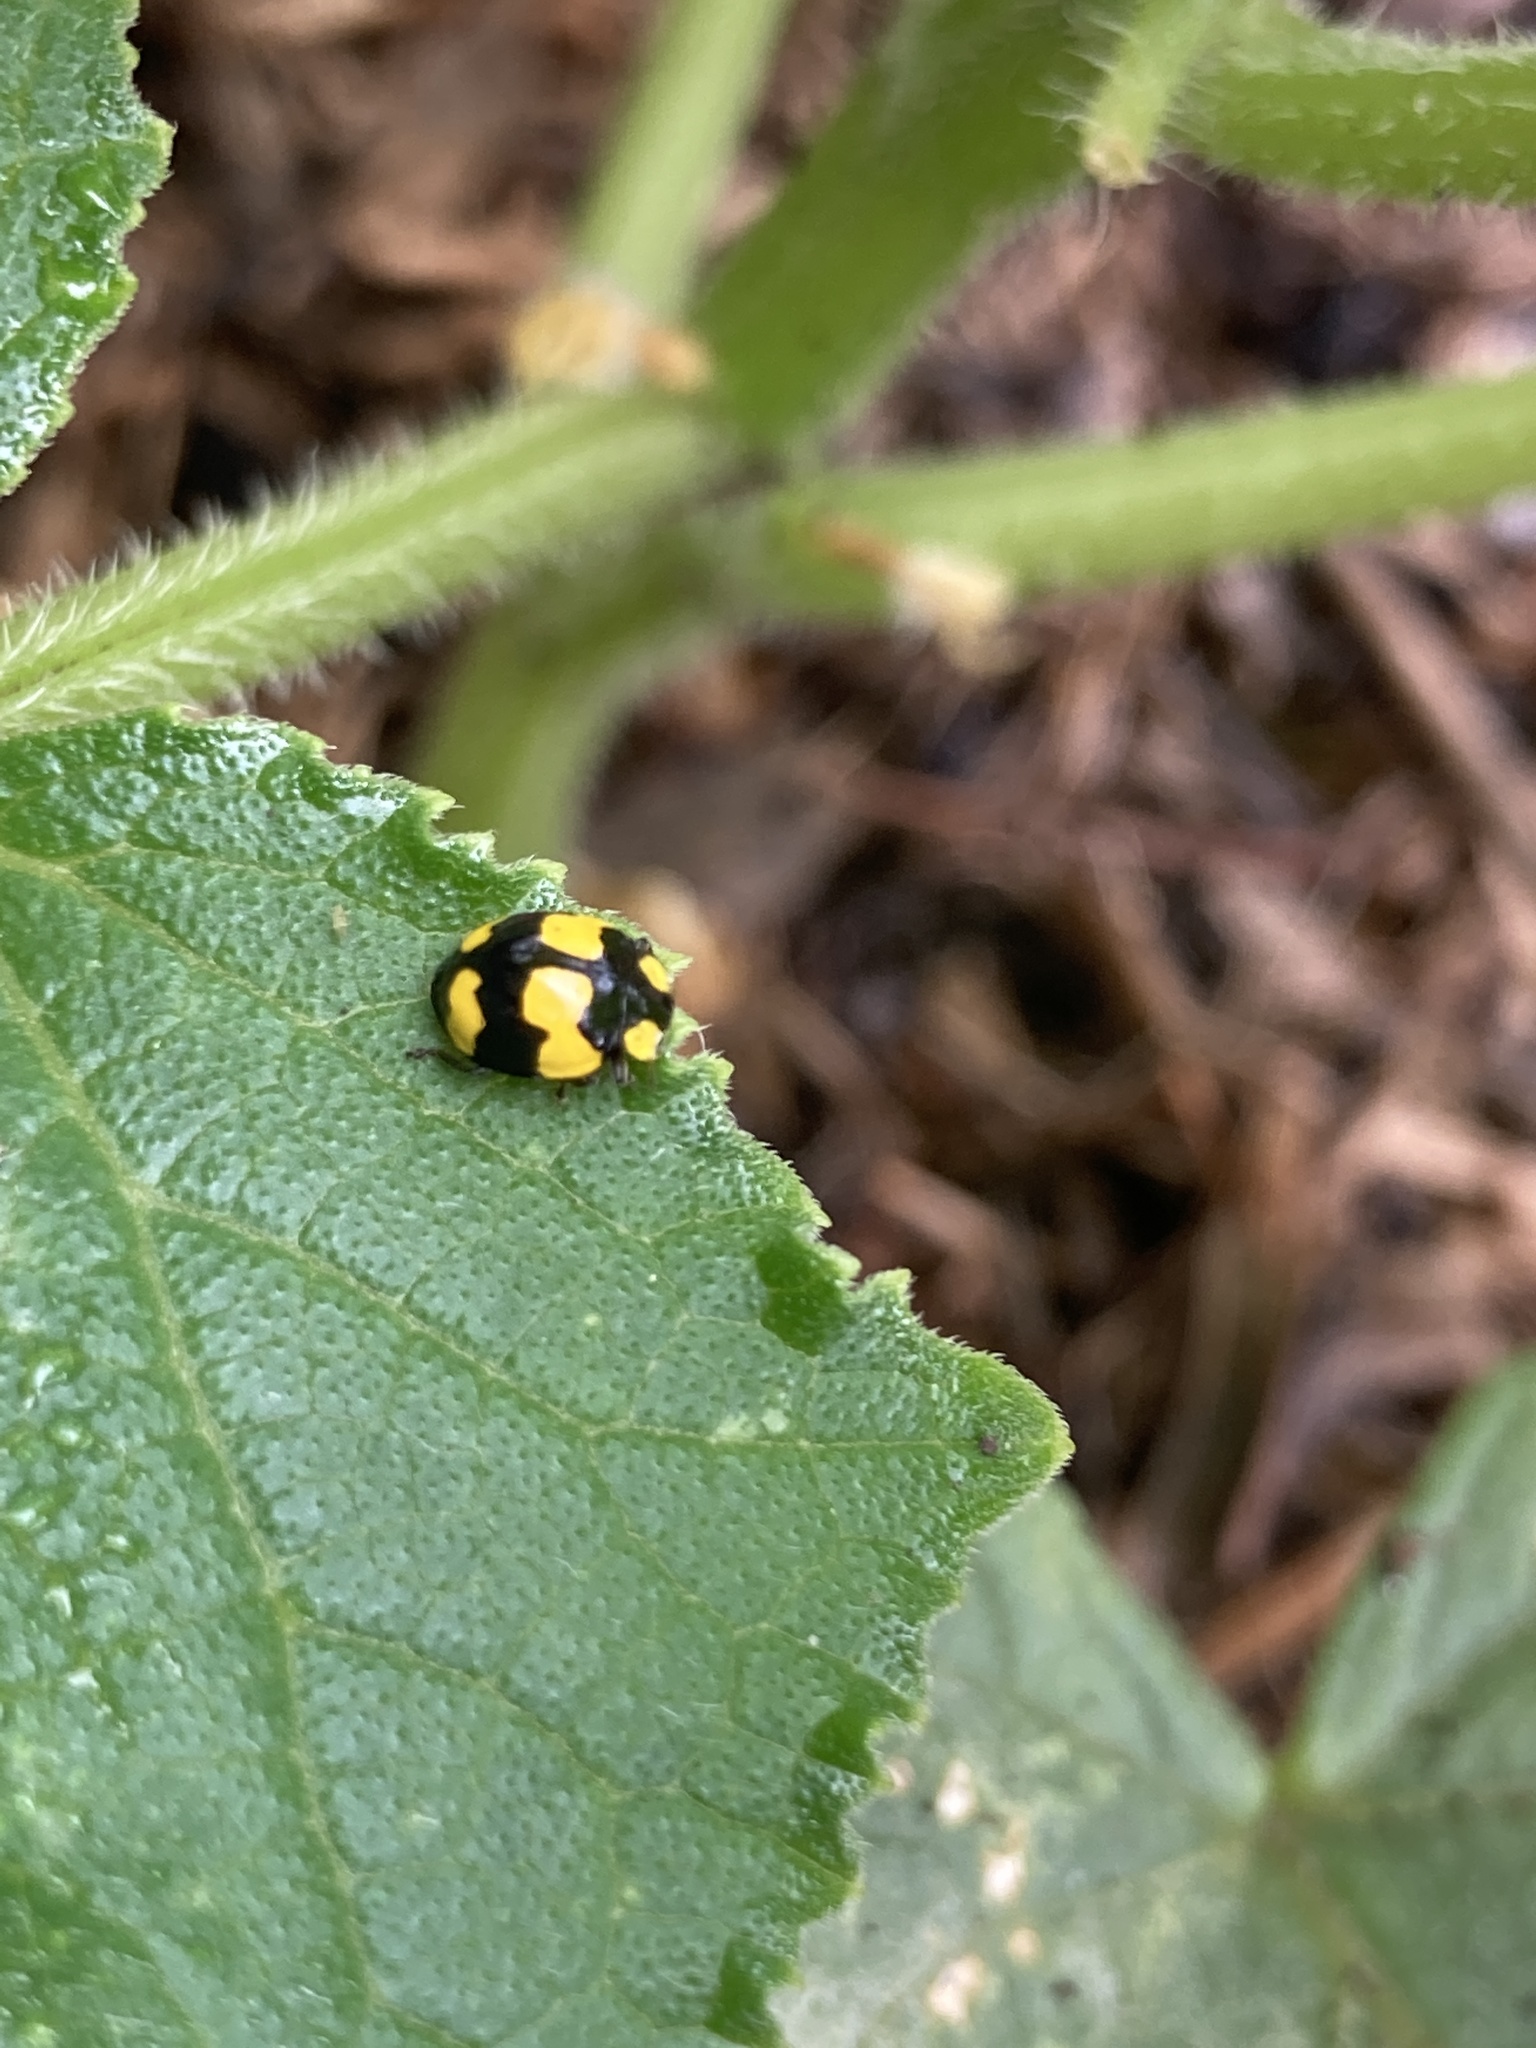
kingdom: Animalia
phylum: Arthropoda
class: Insecta
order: Coleoptera
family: Coccinellidae
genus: Illeis
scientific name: Illeis galbula
